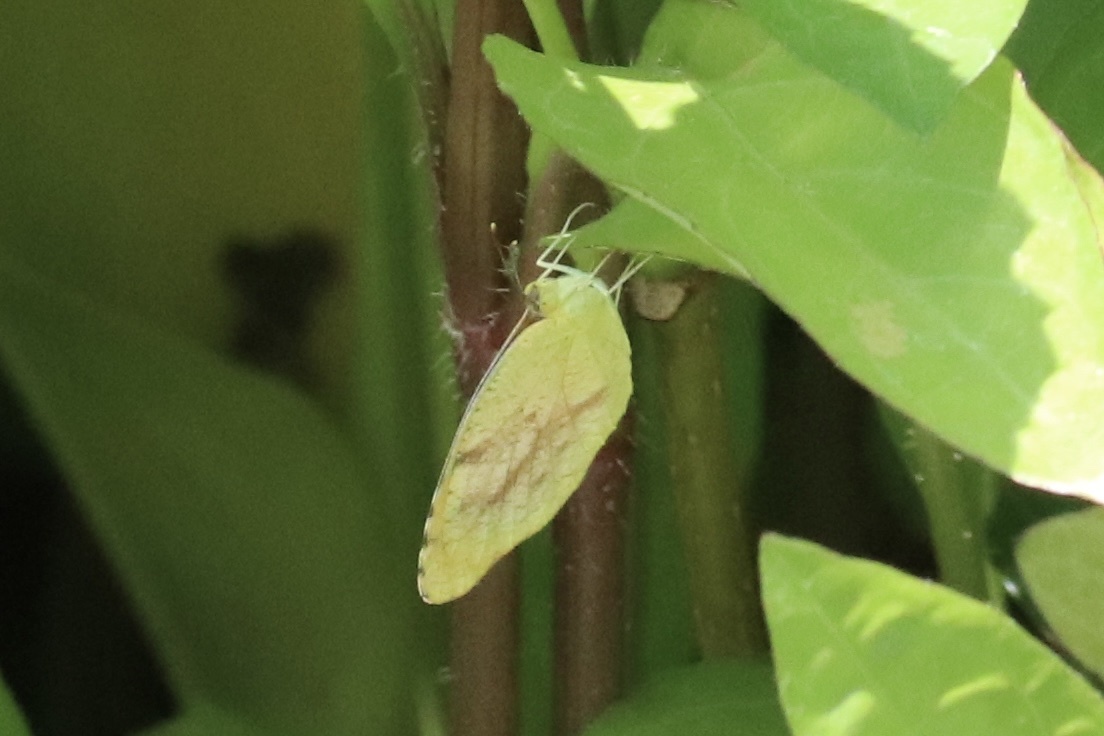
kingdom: Animalia
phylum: Arthropoda
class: Insecta
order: Lepidoptera
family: Pieridae
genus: Abaeis
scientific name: Abaeis nicippe
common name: Sleepy orange
